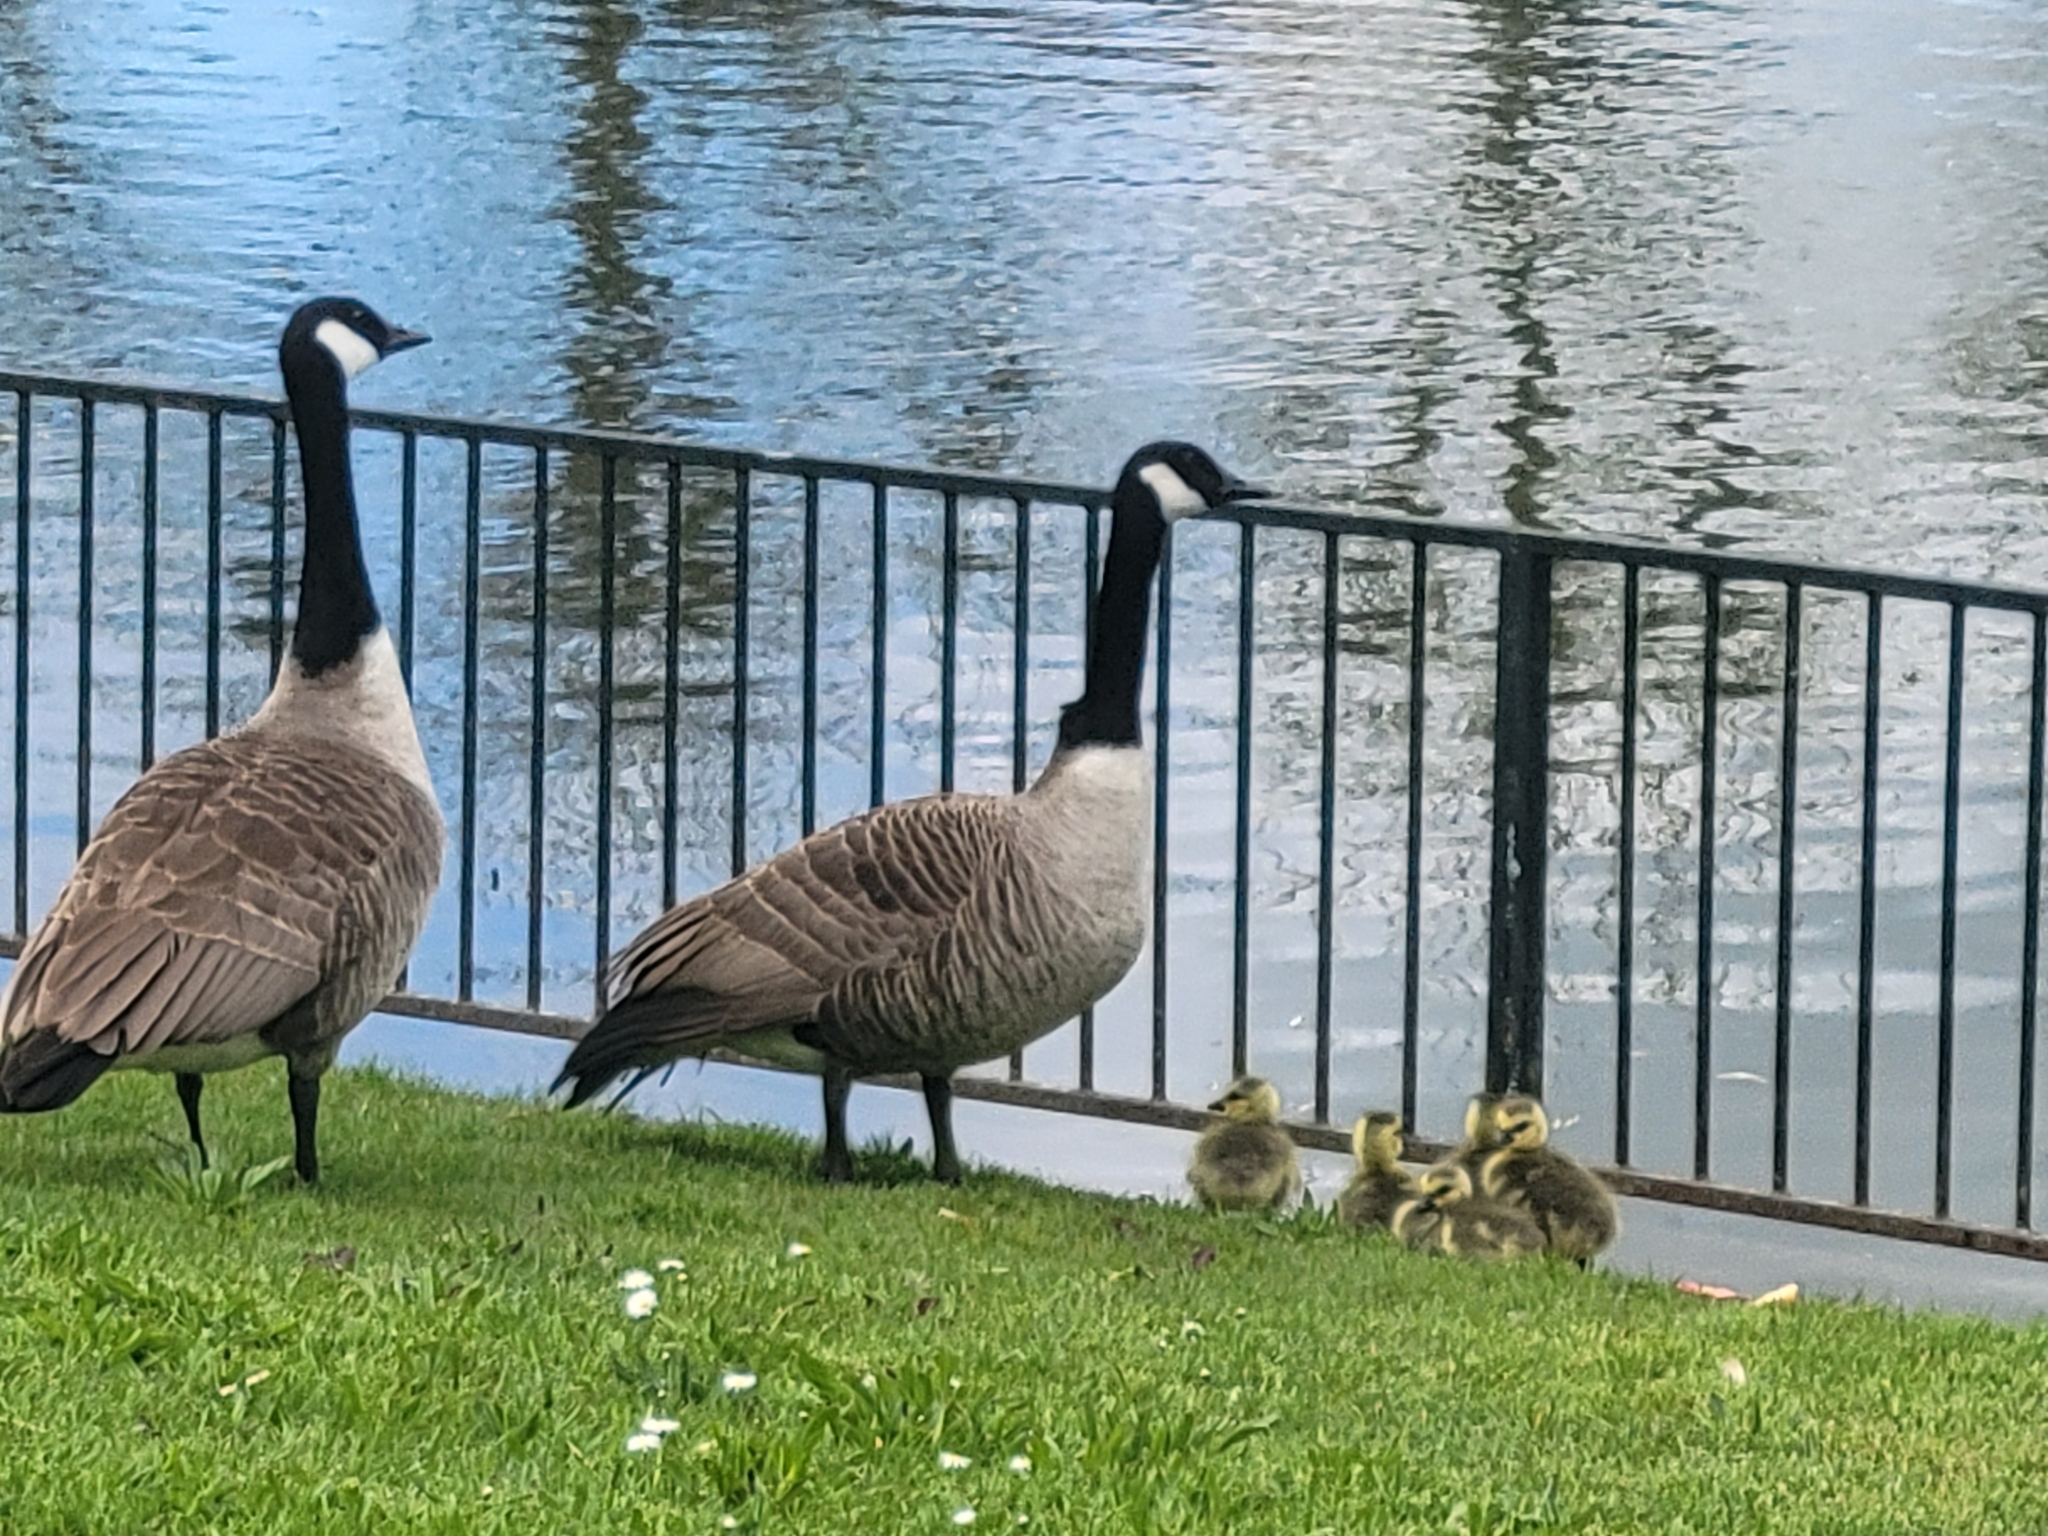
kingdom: Animalia
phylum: Chordata
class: Aves
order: Anseriformes
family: Anatidae
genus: Branta
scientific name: Branta canadensis
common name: Canada goose
